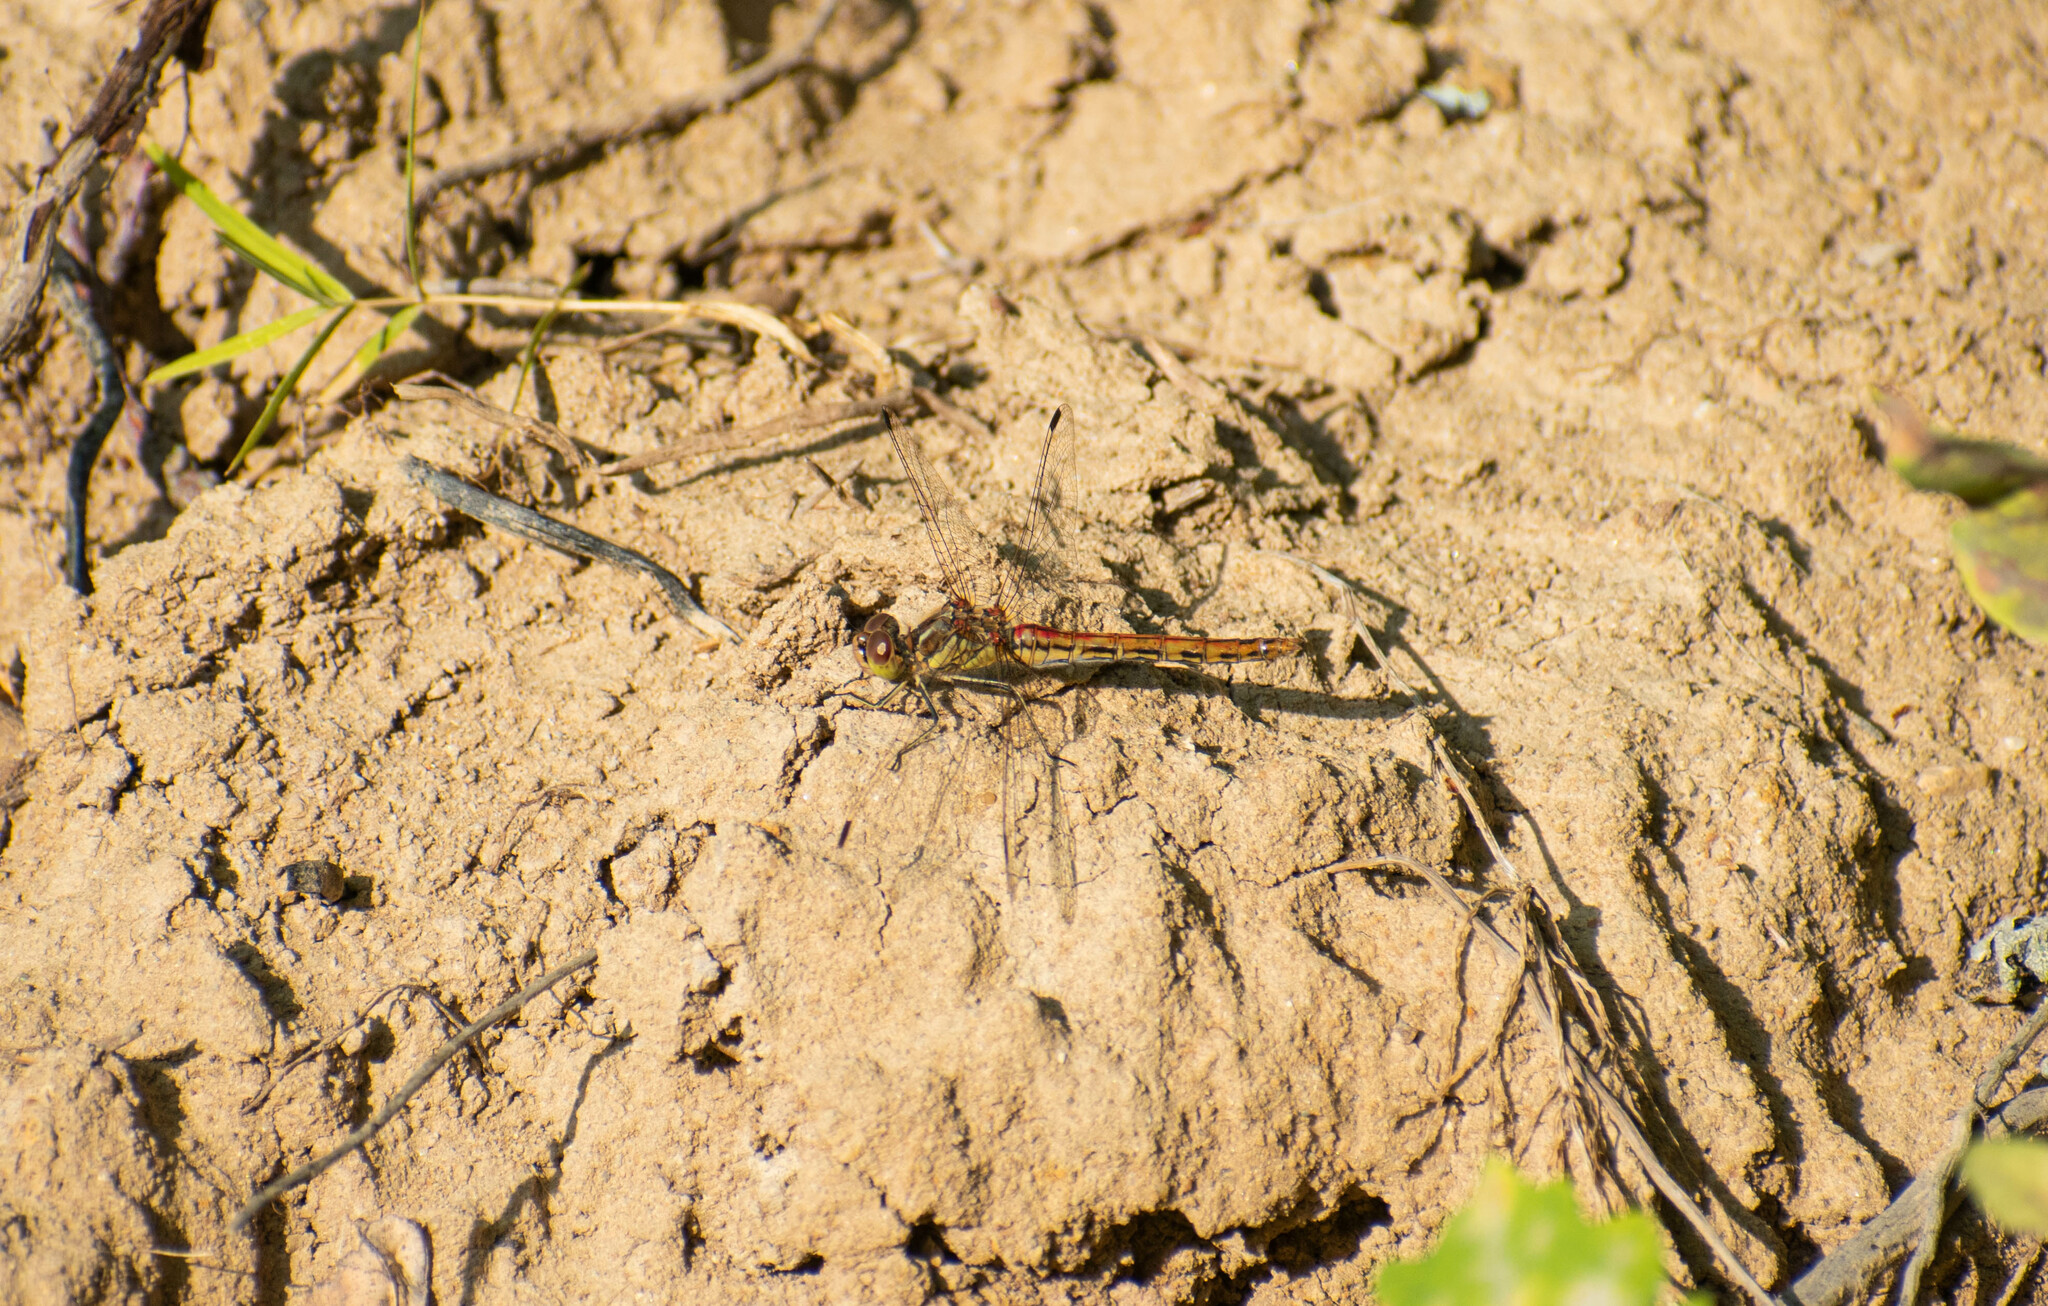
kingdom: Animalia
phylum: Arthropoda
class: Insecta
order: Odonata
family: Libellulidae
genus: Sympetrum
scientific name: Sympetrum vulgatum
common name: Vagrant darter
